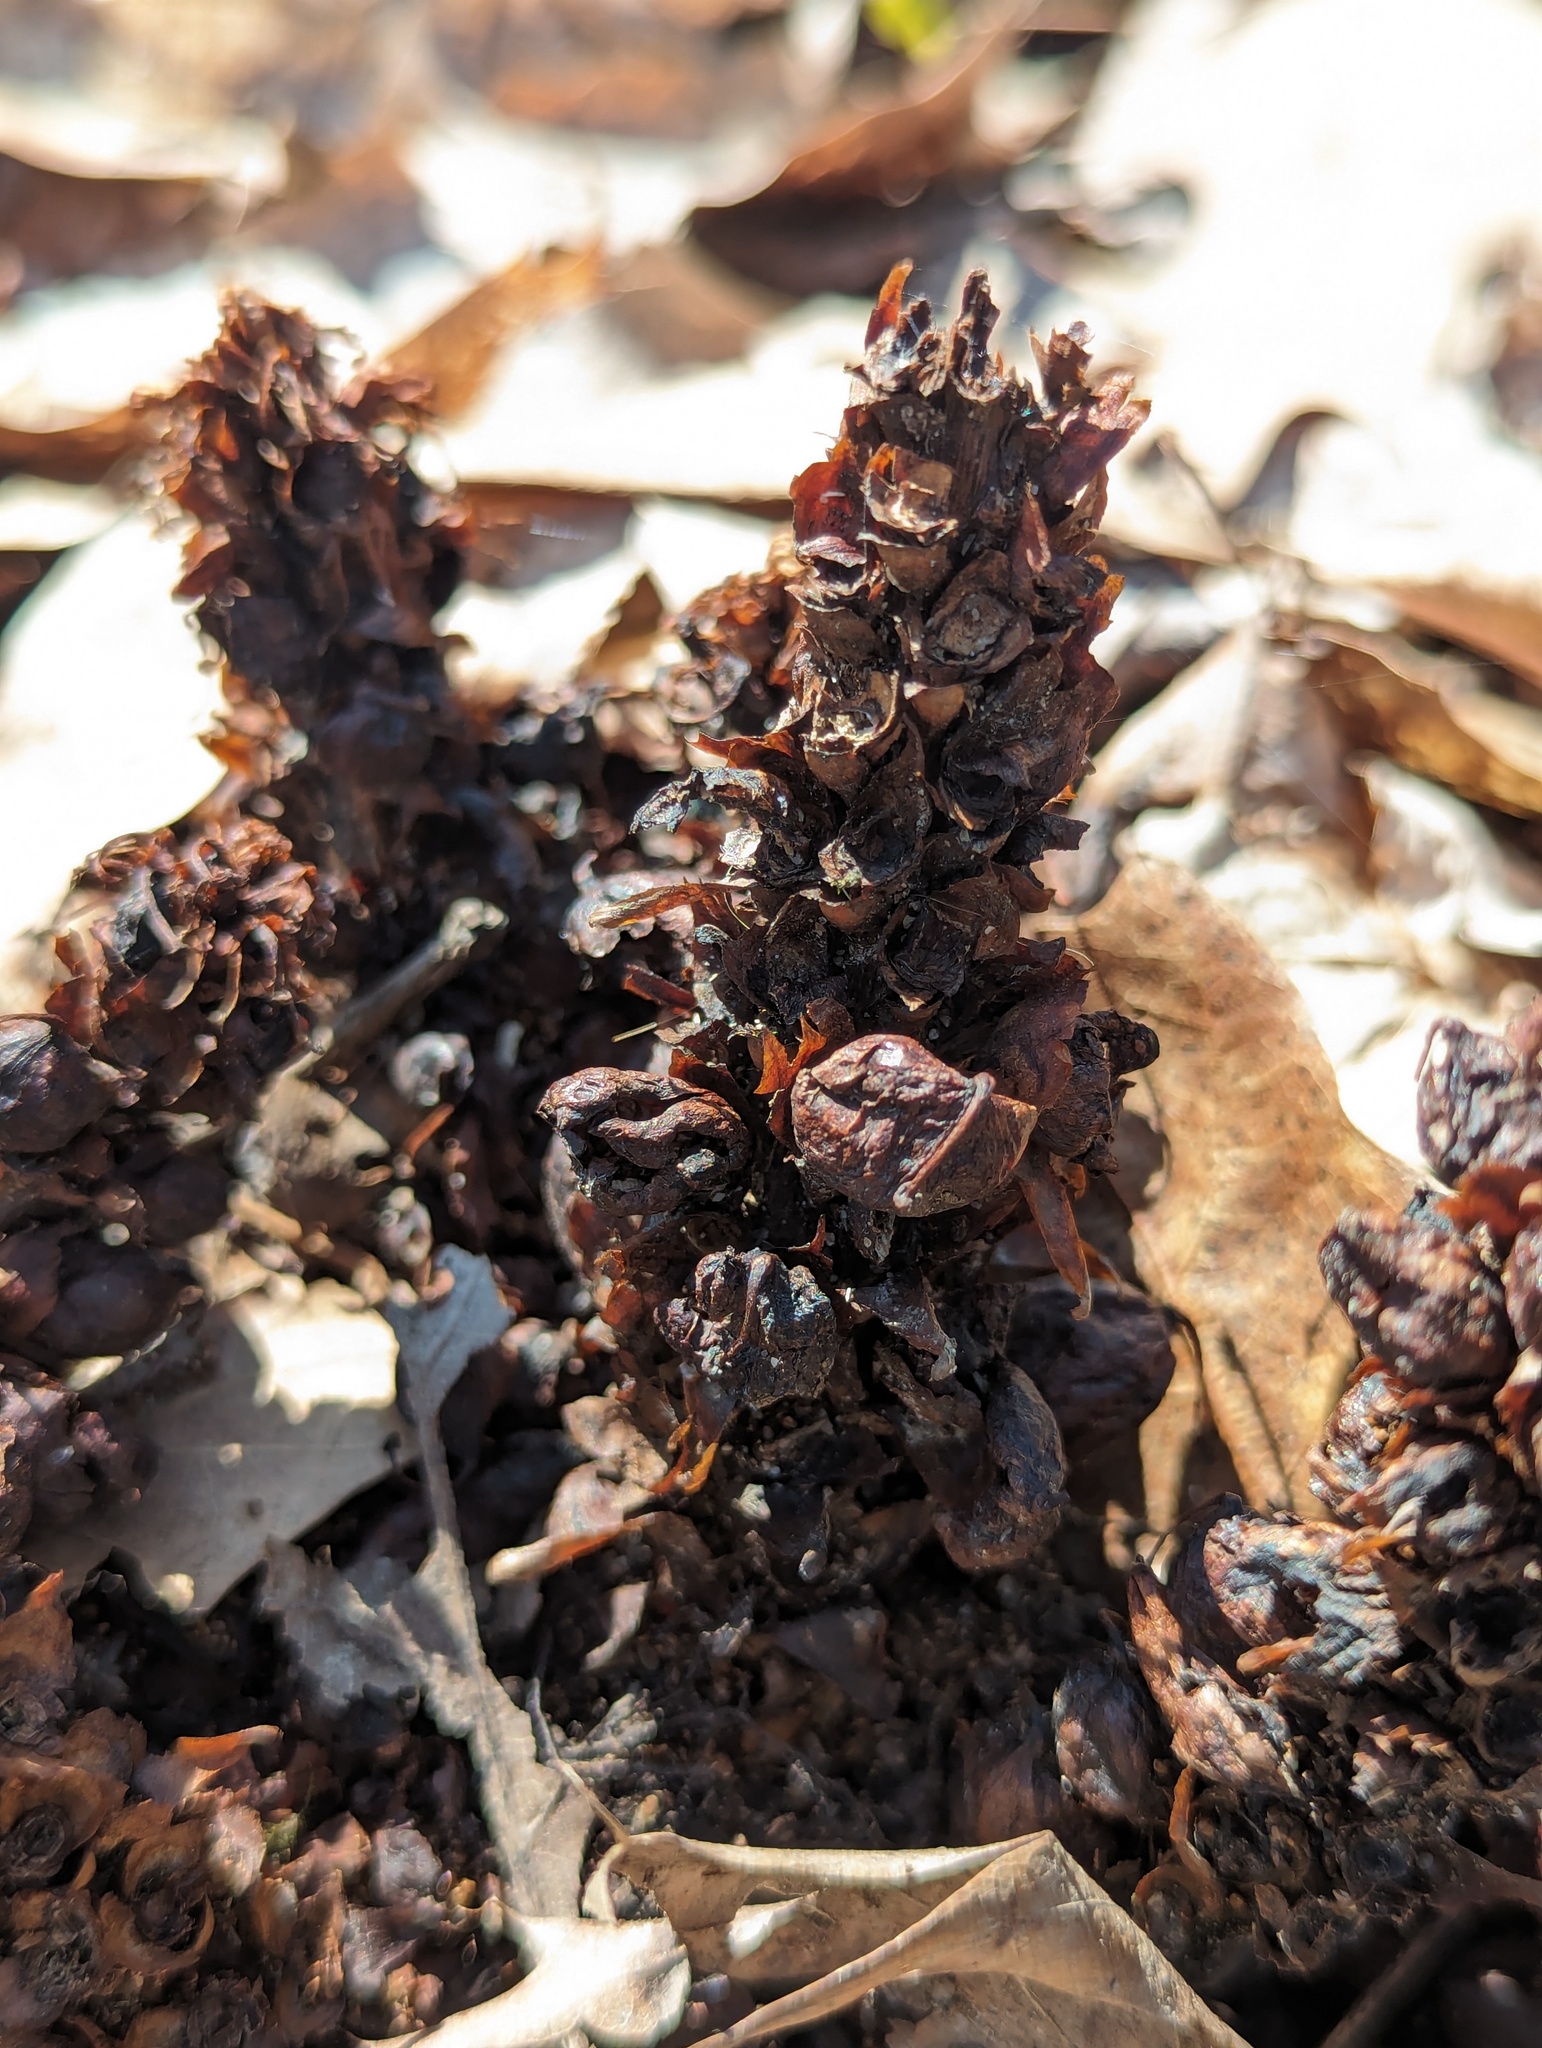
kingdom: Plantae
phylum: Tracheophyta
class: Magnoliopsida
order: Lamiales
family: Orobanchaceae
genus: Conopholis
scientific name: Conopholis americana
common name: American cancer-root
